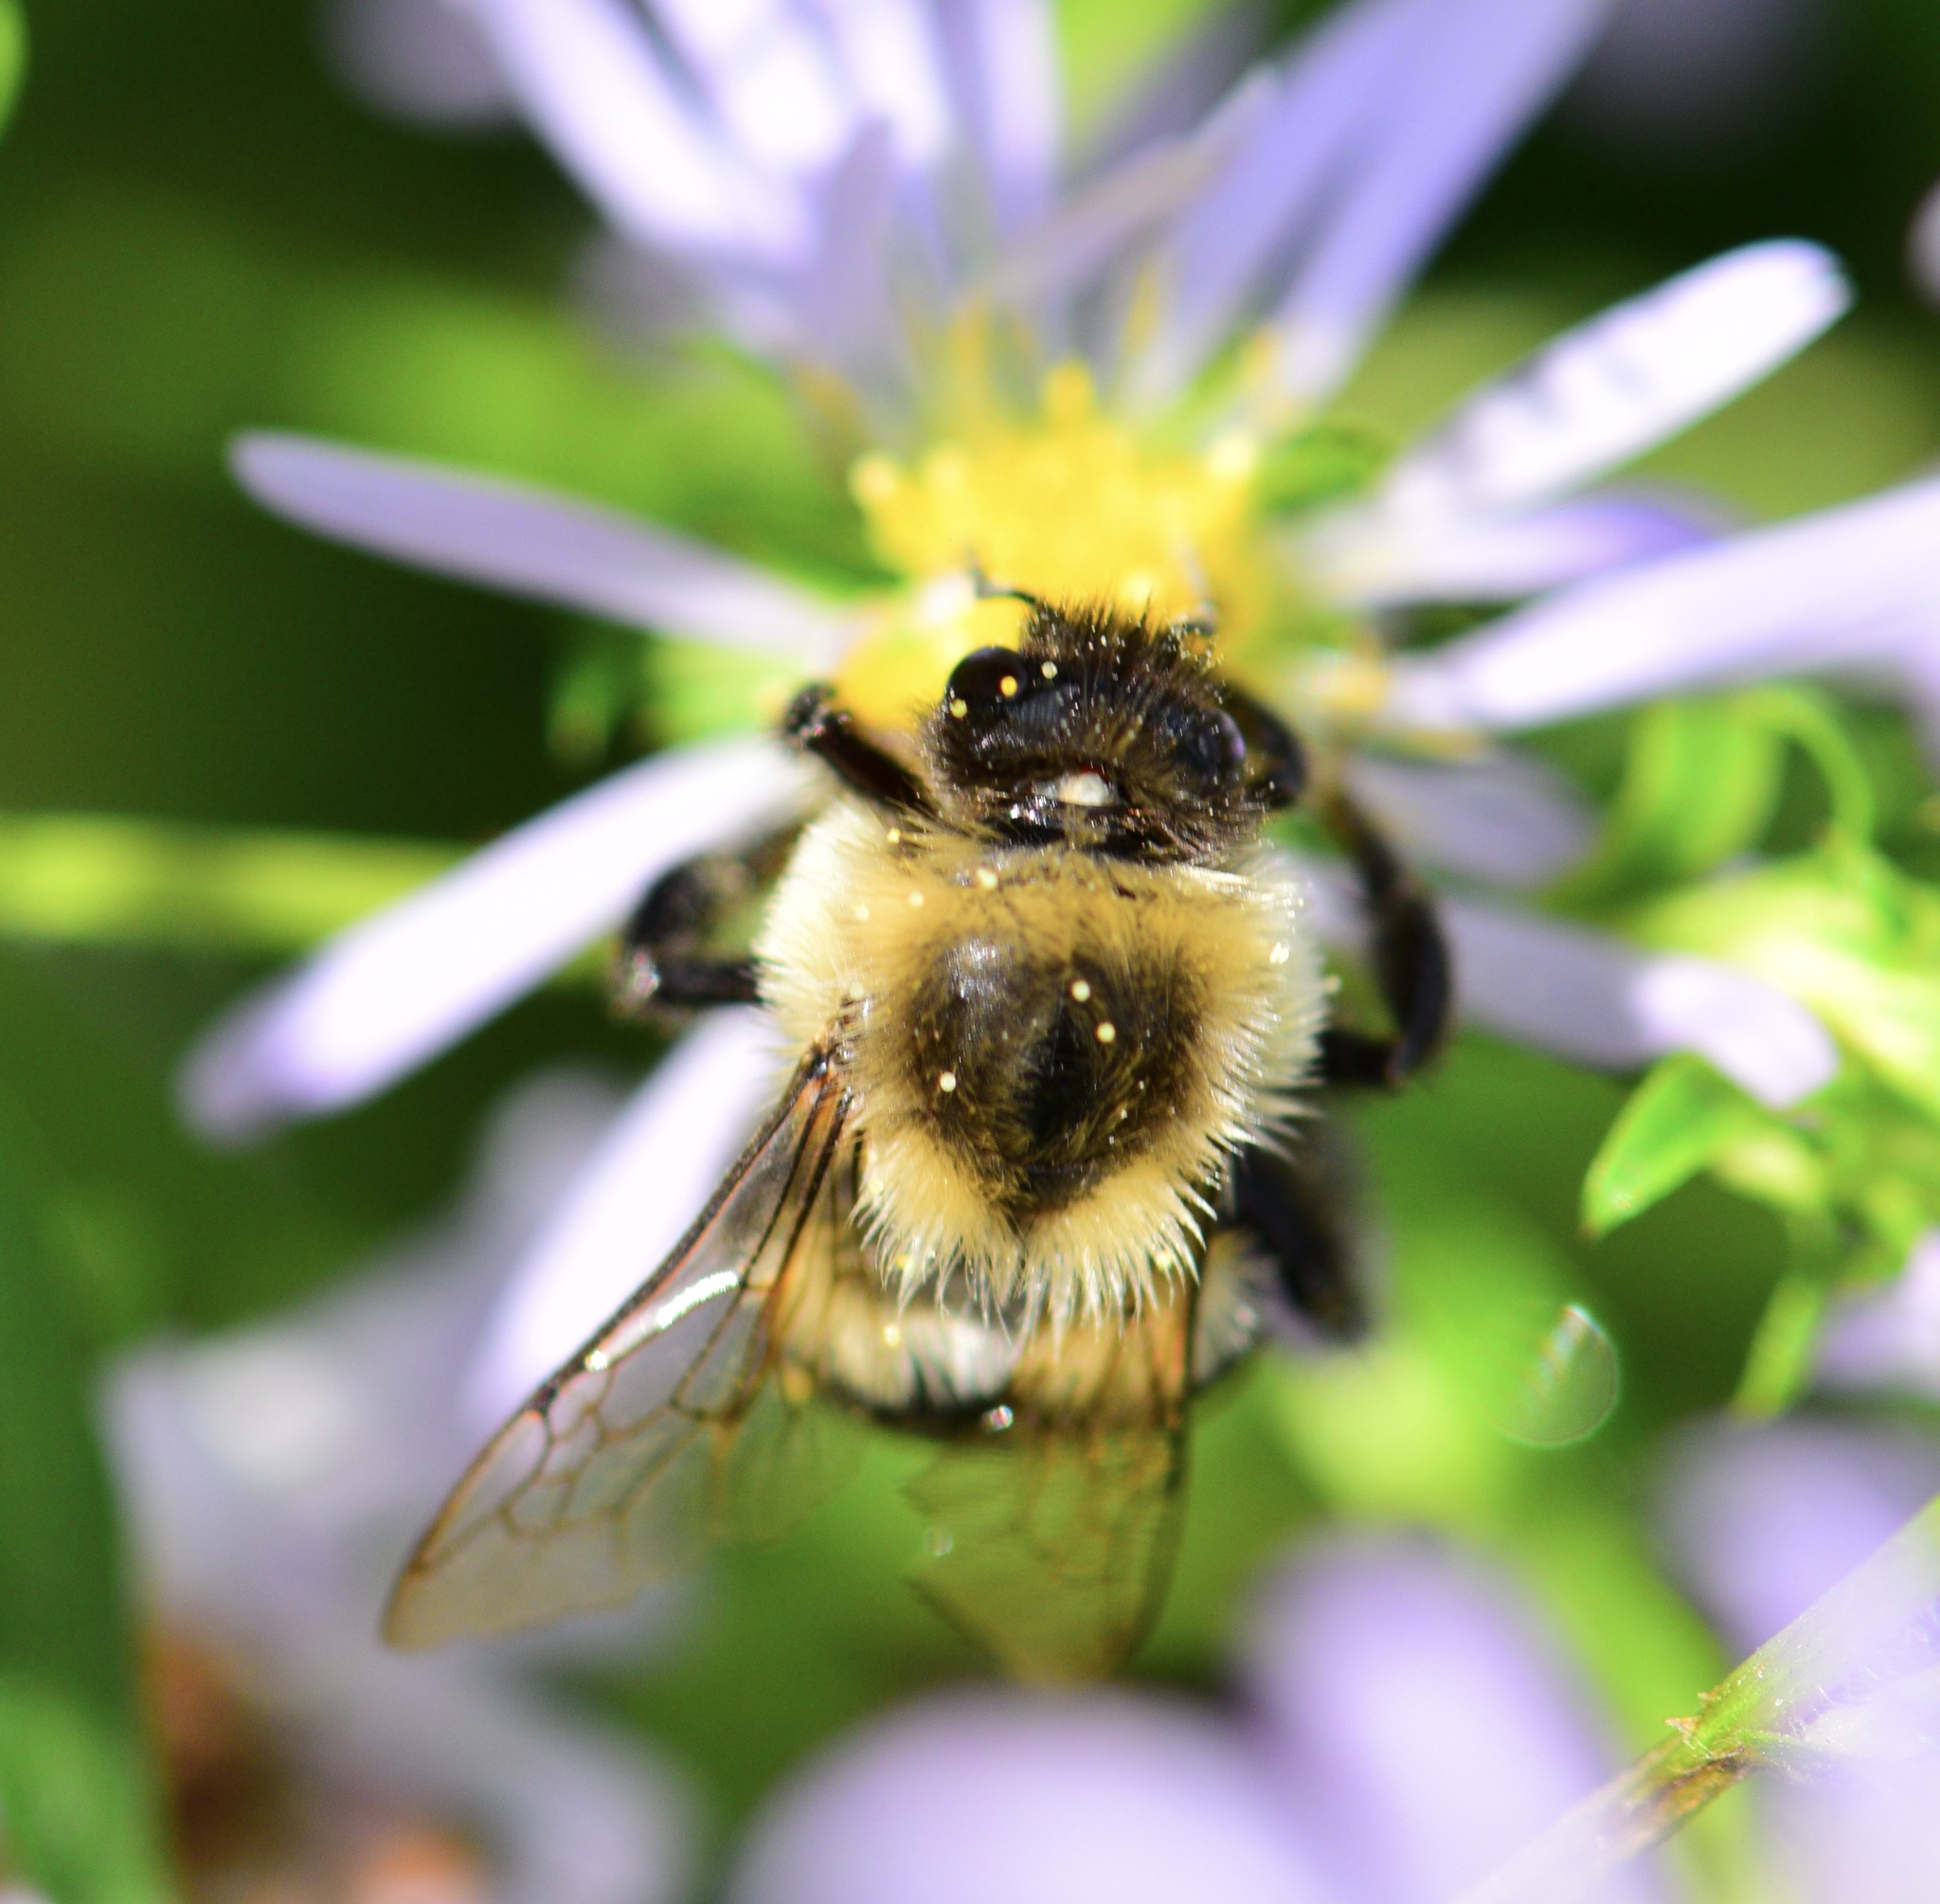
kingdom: Animalia
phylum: Arthropoda
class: Insecta
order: Hymenoptera
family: Apidae
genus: Bombus
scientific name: Bombus impatiens
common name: Common eastern bumble bee
